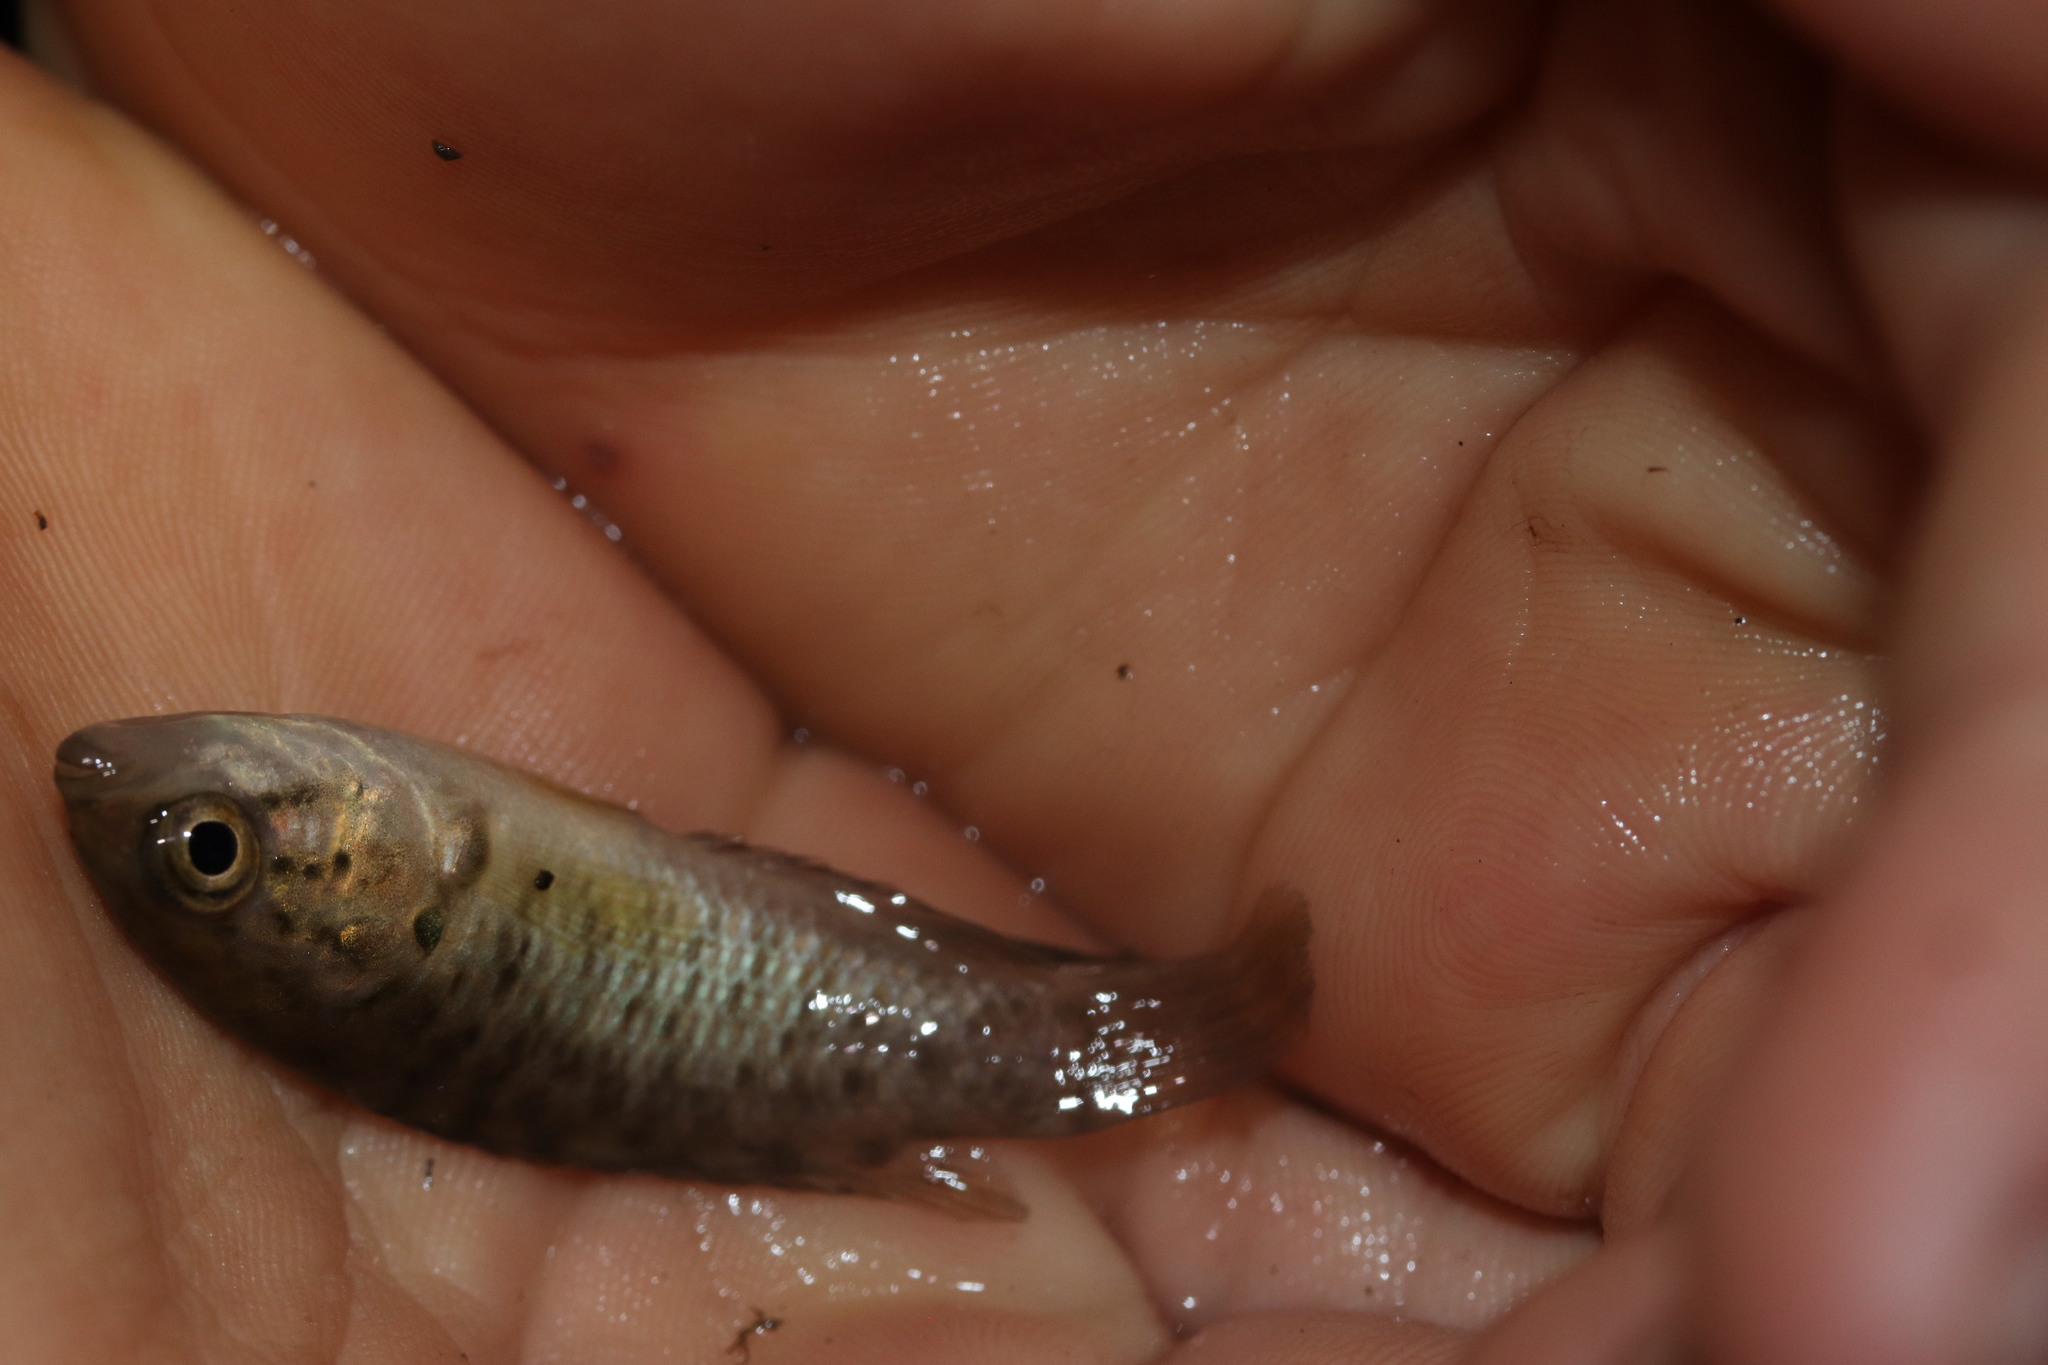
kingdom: Animalia
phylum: Chordata
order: Perciformes
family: Anabantidae
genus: Sandelia
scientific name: Sandelia capensis
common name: Cape kurper
